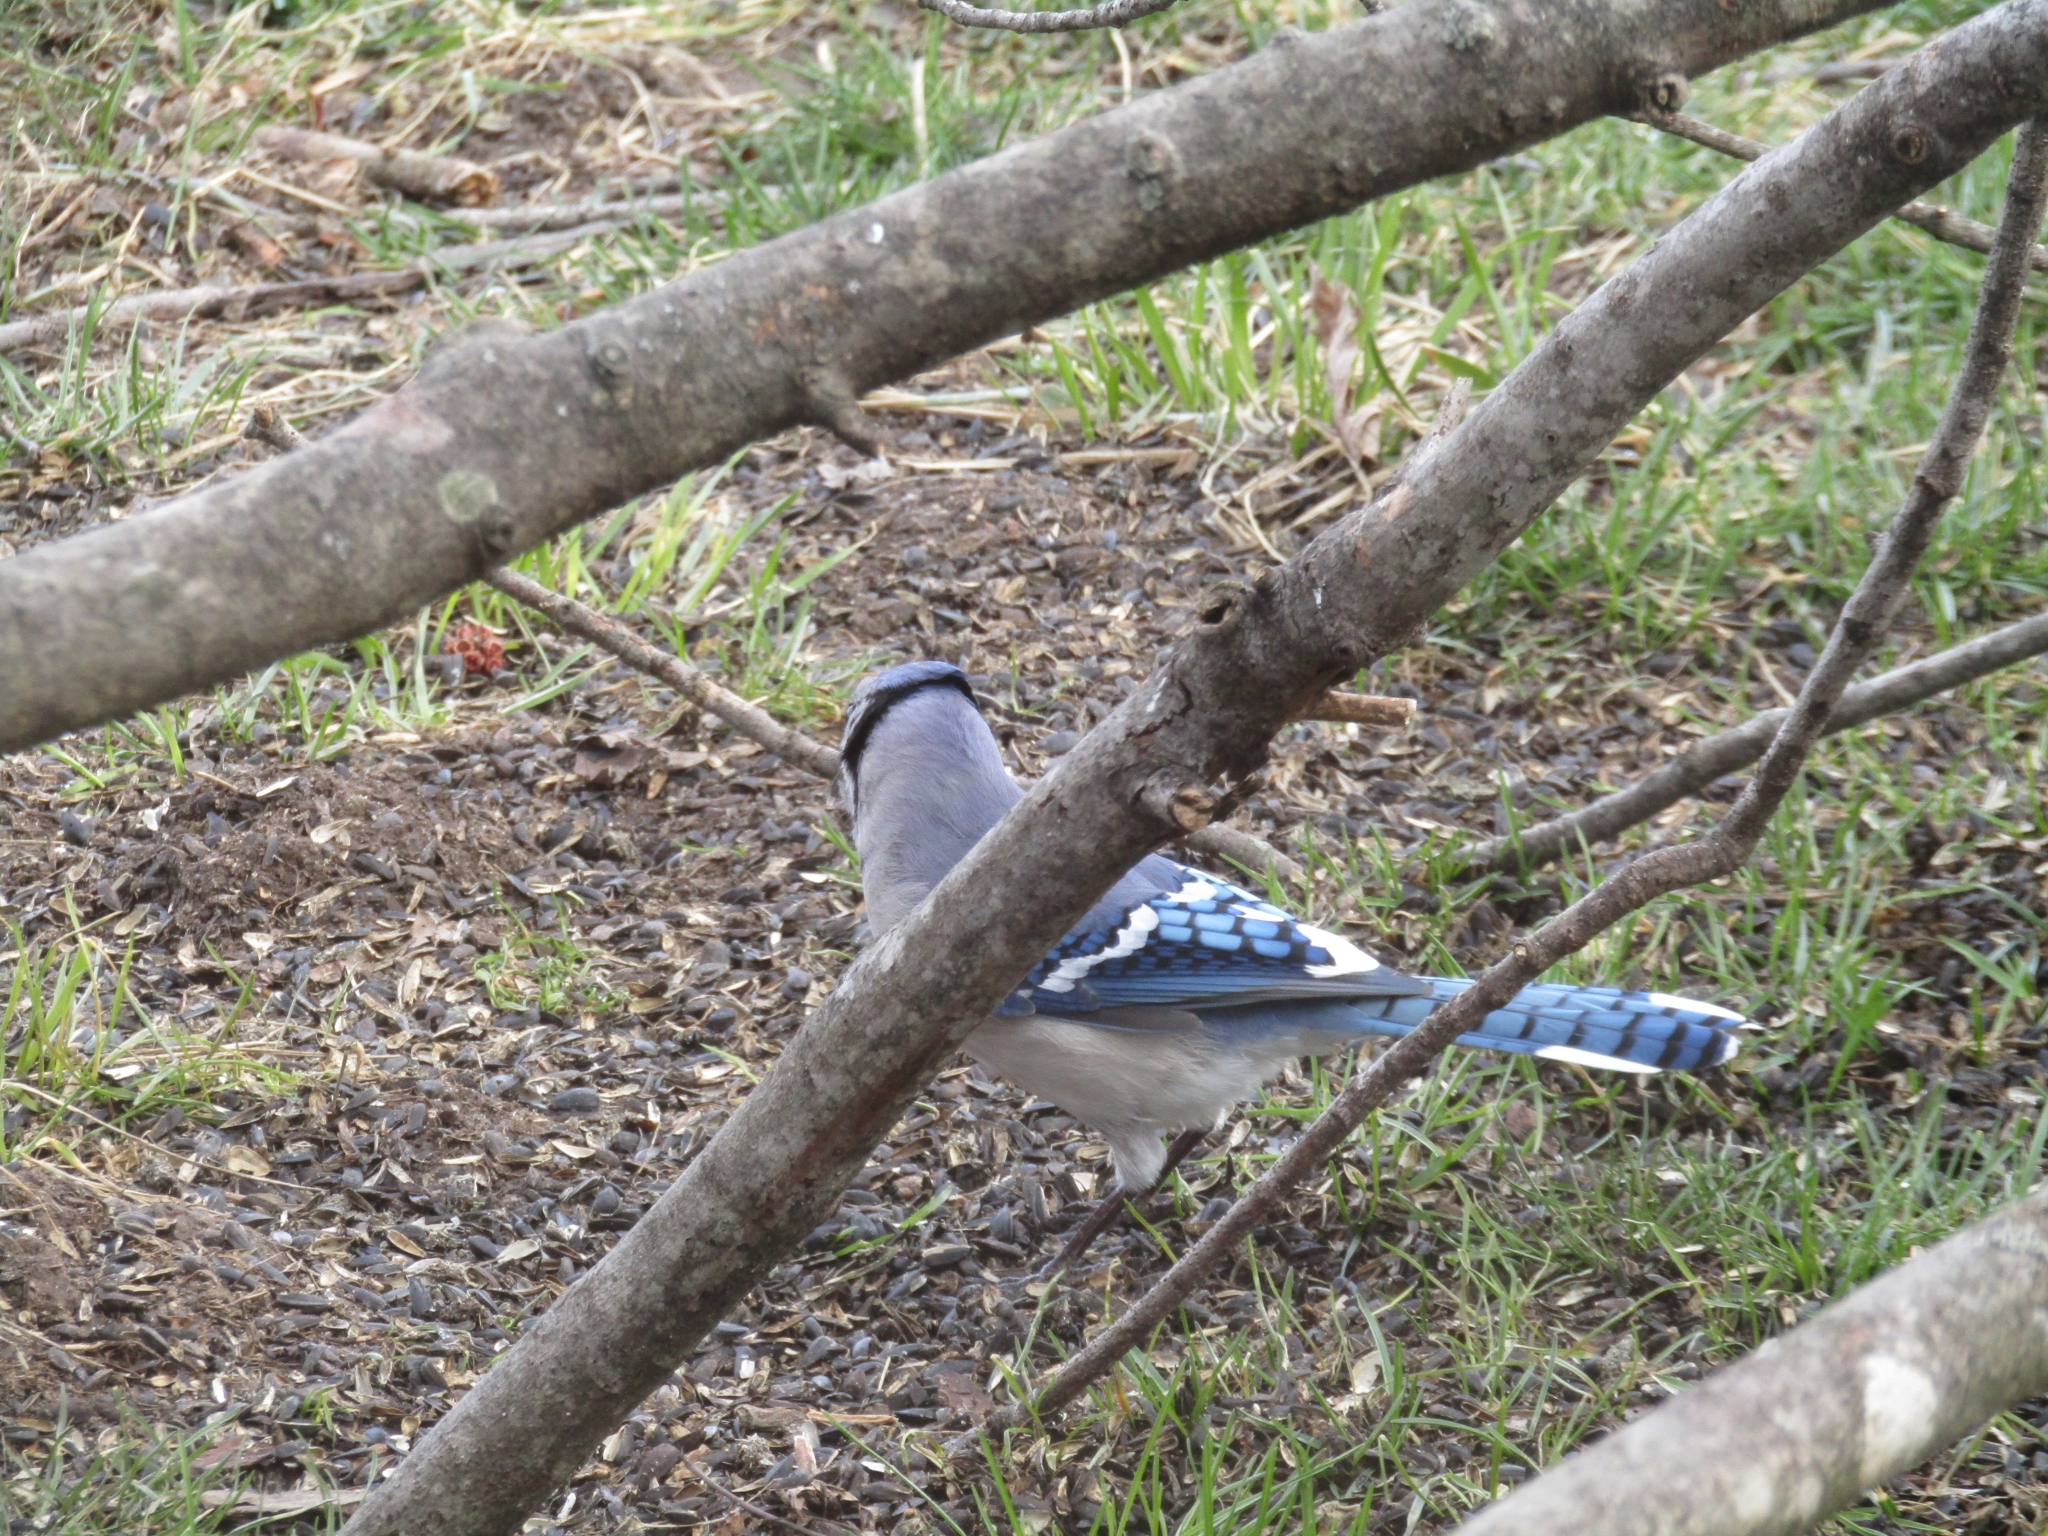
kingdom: Animalia
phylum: Chordata
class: Aves
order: Passeriformes
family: Corvidae
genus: Cyanocitta
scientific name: Cyanocitta cristata
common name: Blue jay
